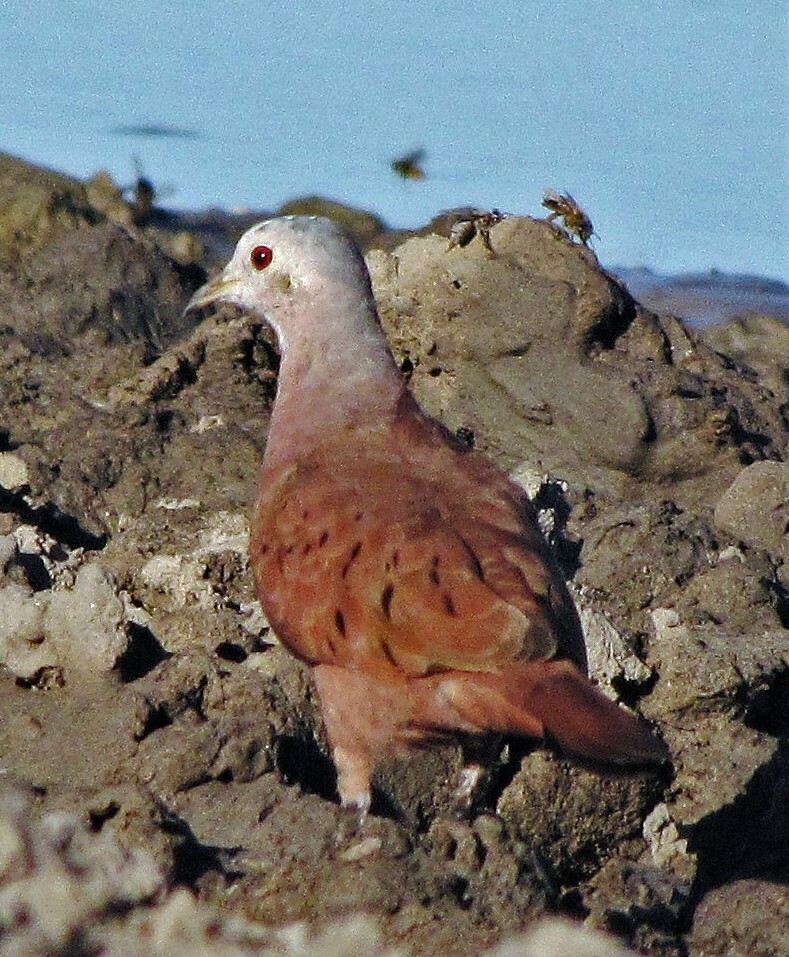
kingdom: Animalia
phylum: Chordata
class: Aves
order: Columbiformes
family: Columbidae
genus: Columbina
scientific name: Columbina talpacoti
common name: Ruddy ground dove
